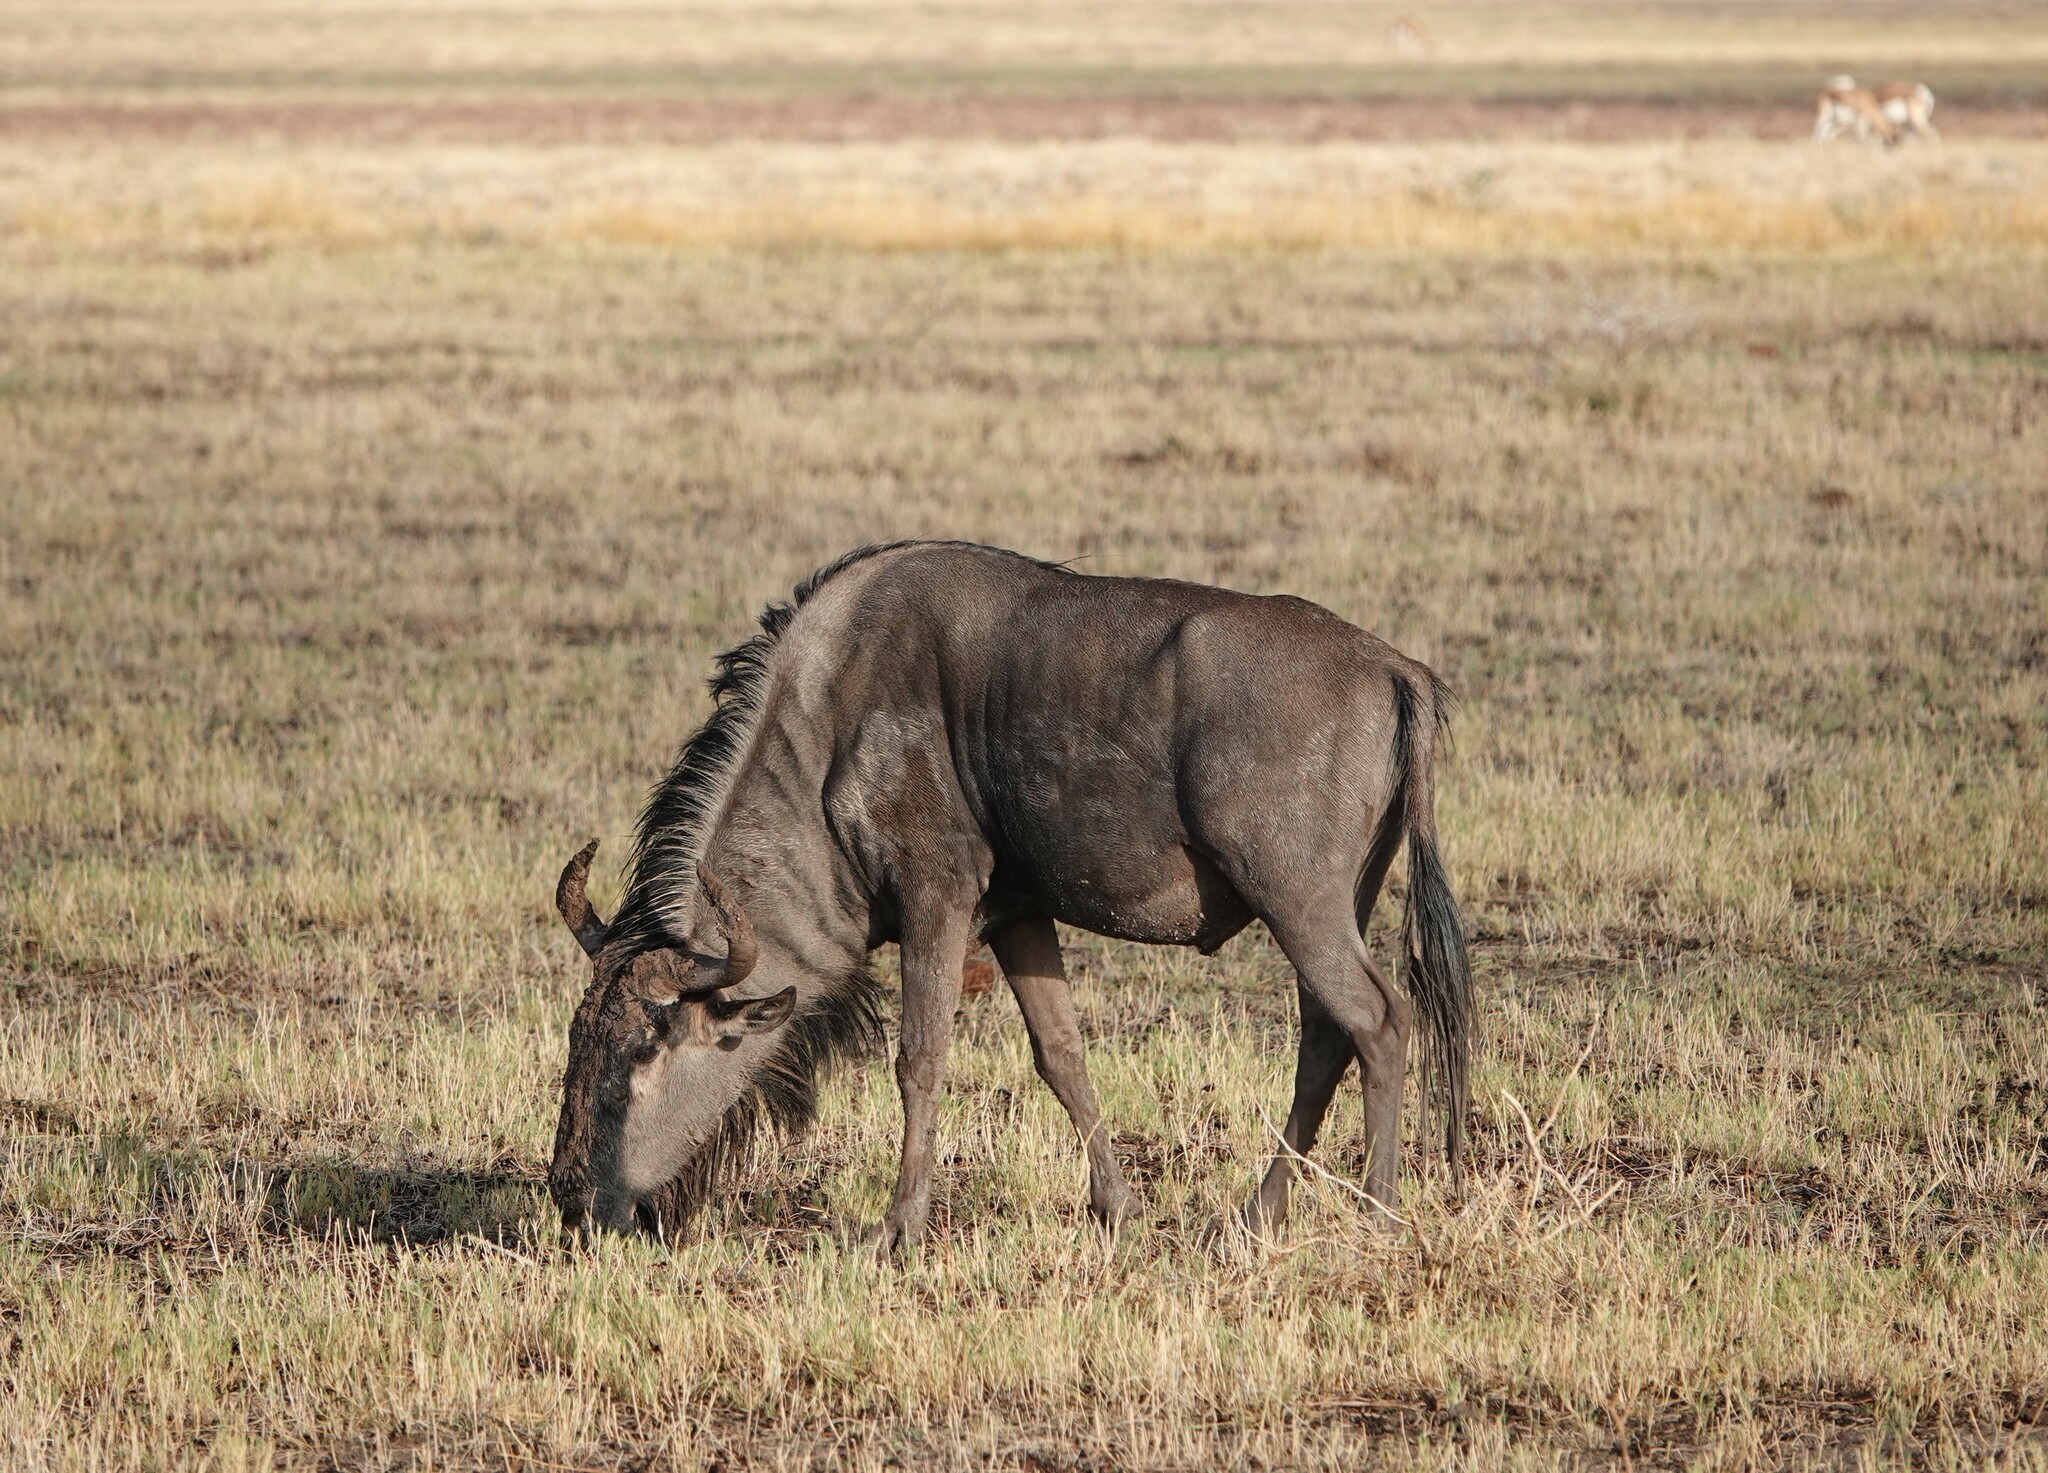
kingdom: Animalia
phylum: Chordata
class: Mammalia
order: Artiodactyla
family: Bovidae
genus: Connochaetes
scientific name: Connochaetes taurinus
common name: Blue wildebeest
